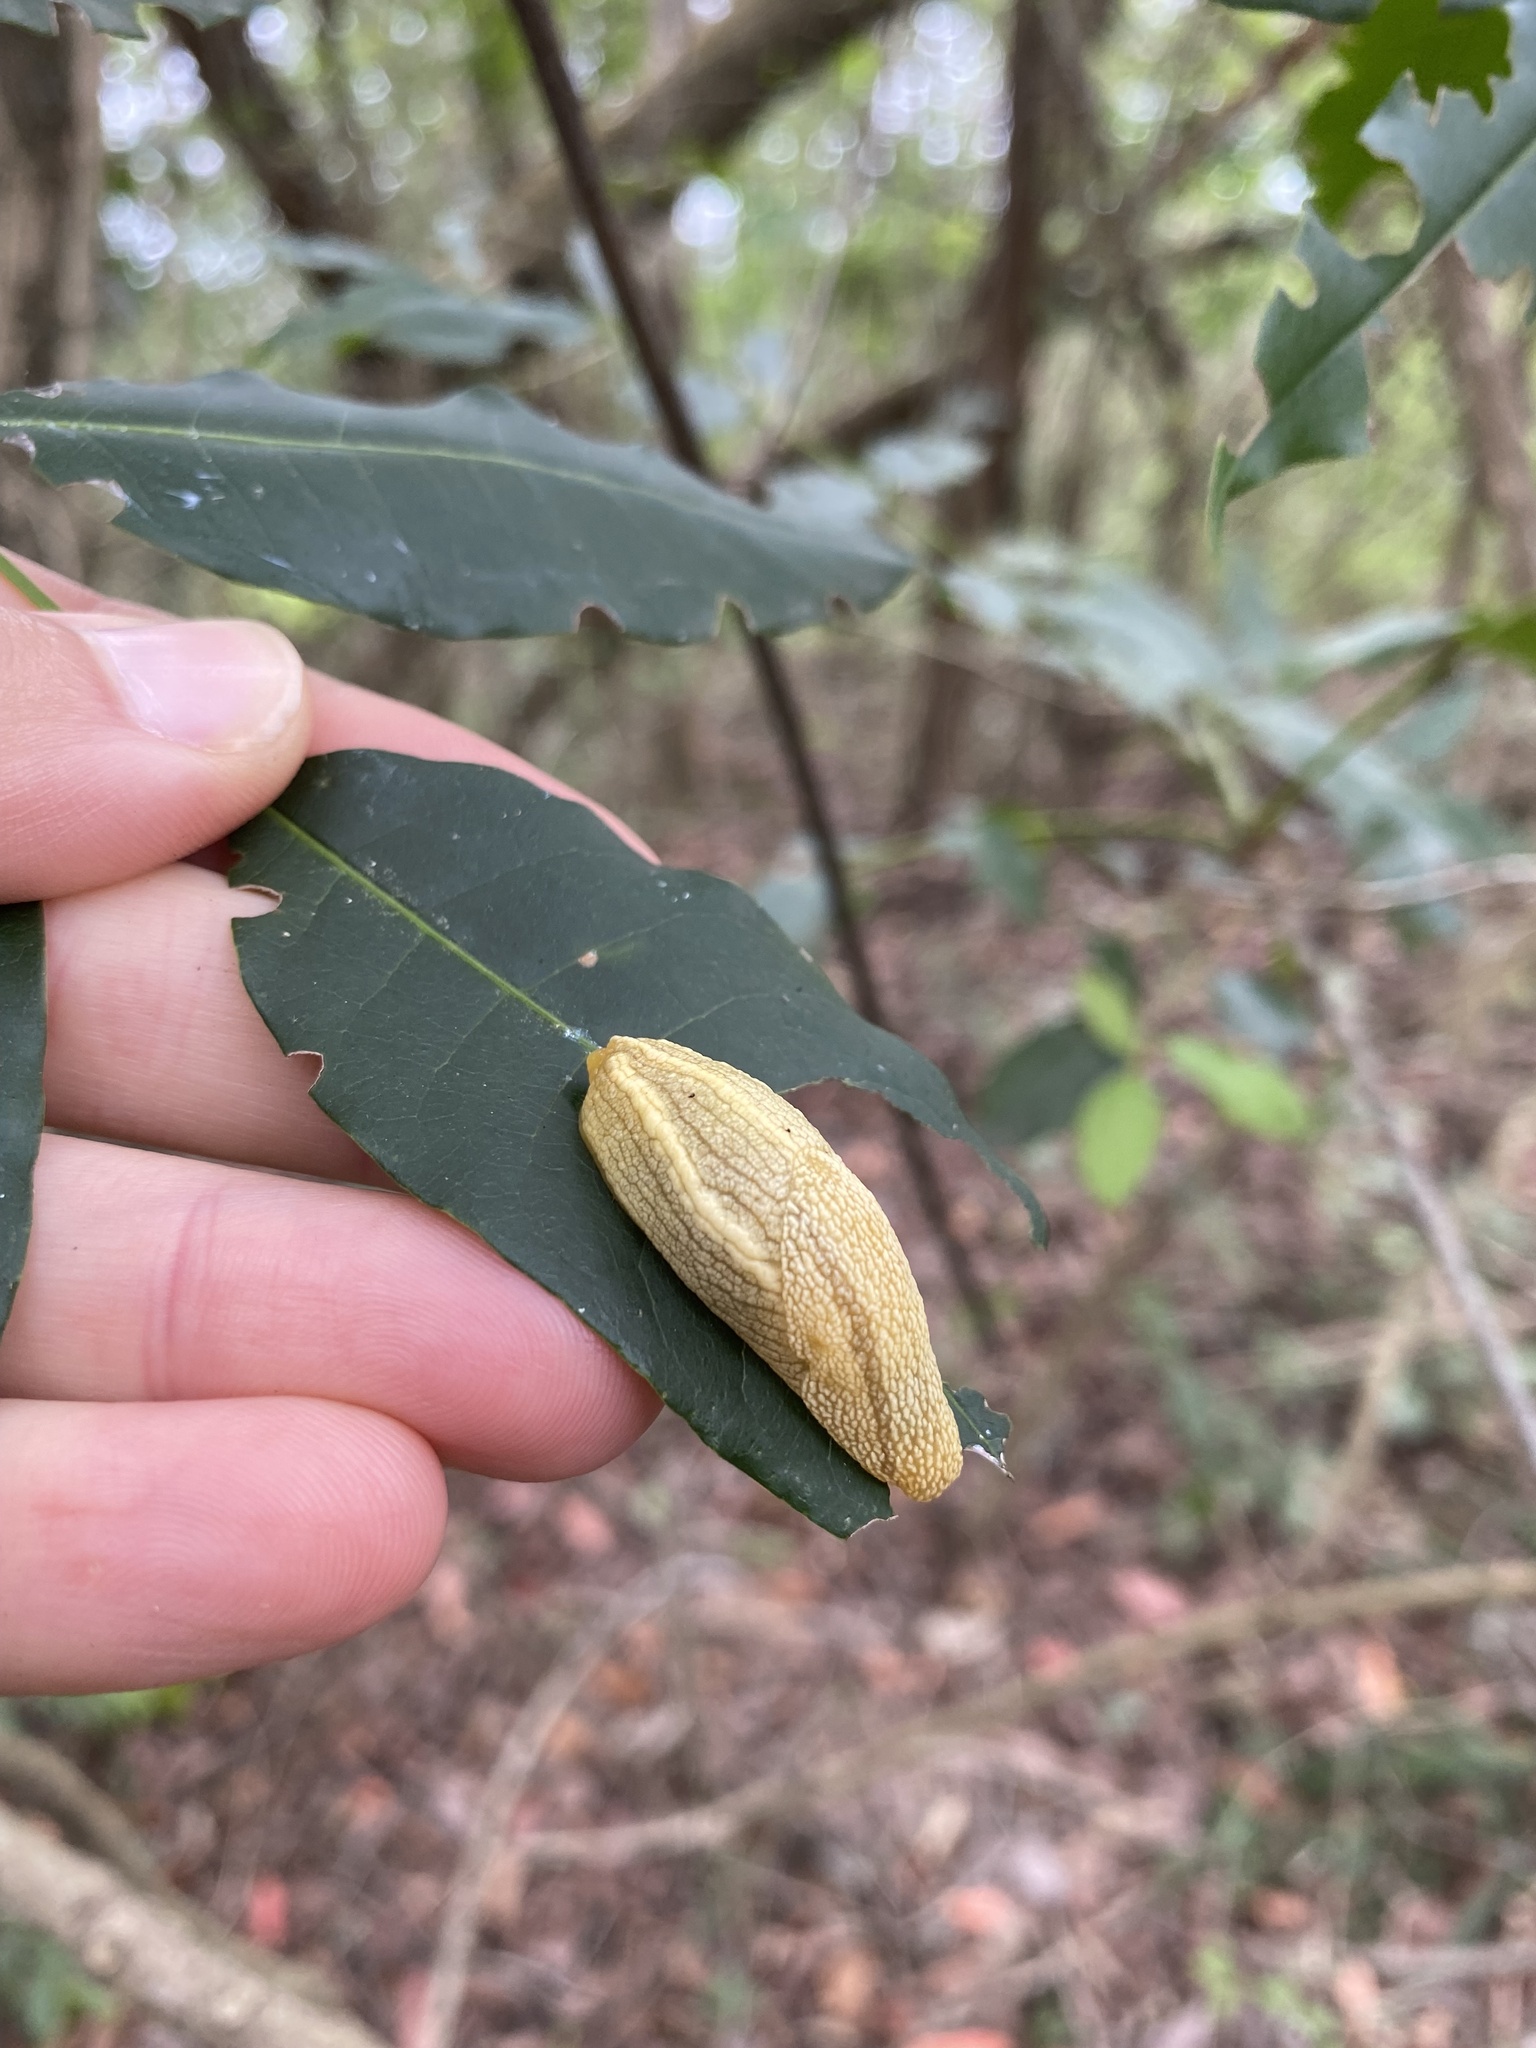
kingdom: Animalia
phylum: Mollusca
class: Gastropoda
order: Stylommatophora
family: Urocyclidae
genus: Elisolimax
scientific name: Elisolimax flavescens
